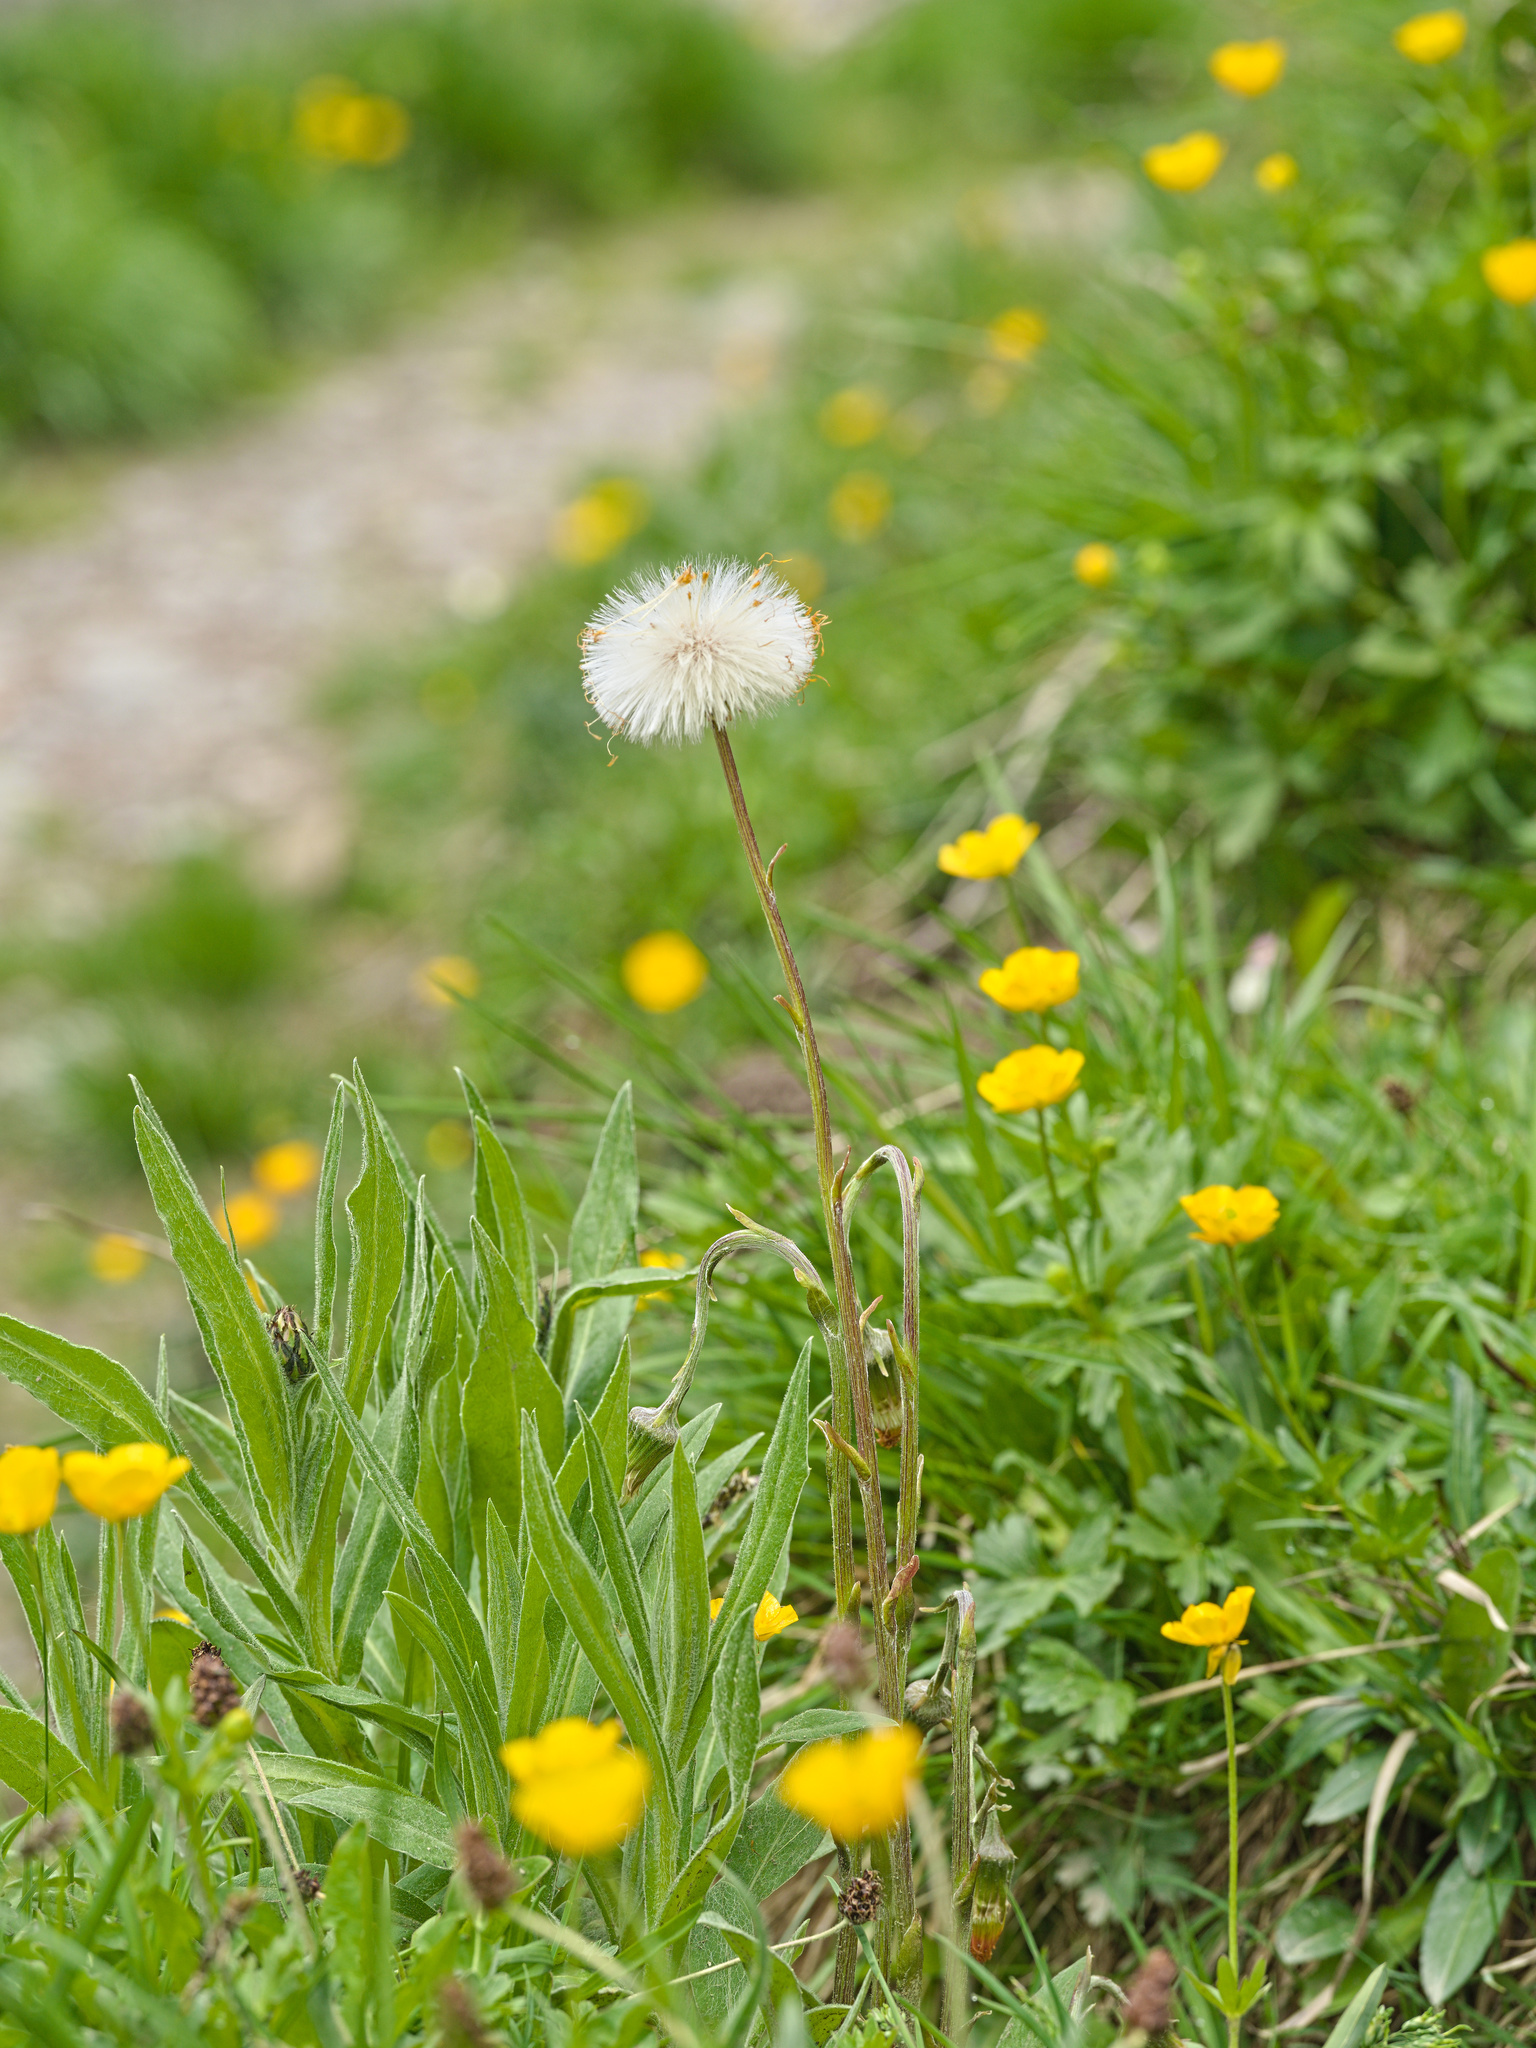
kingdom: Plantae
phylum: Tracheophyta
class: Magnoliopsida
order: Asterales
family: Asteraceae
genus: Tussilago
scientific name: Tussilago farfara
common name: Coltsfoot
